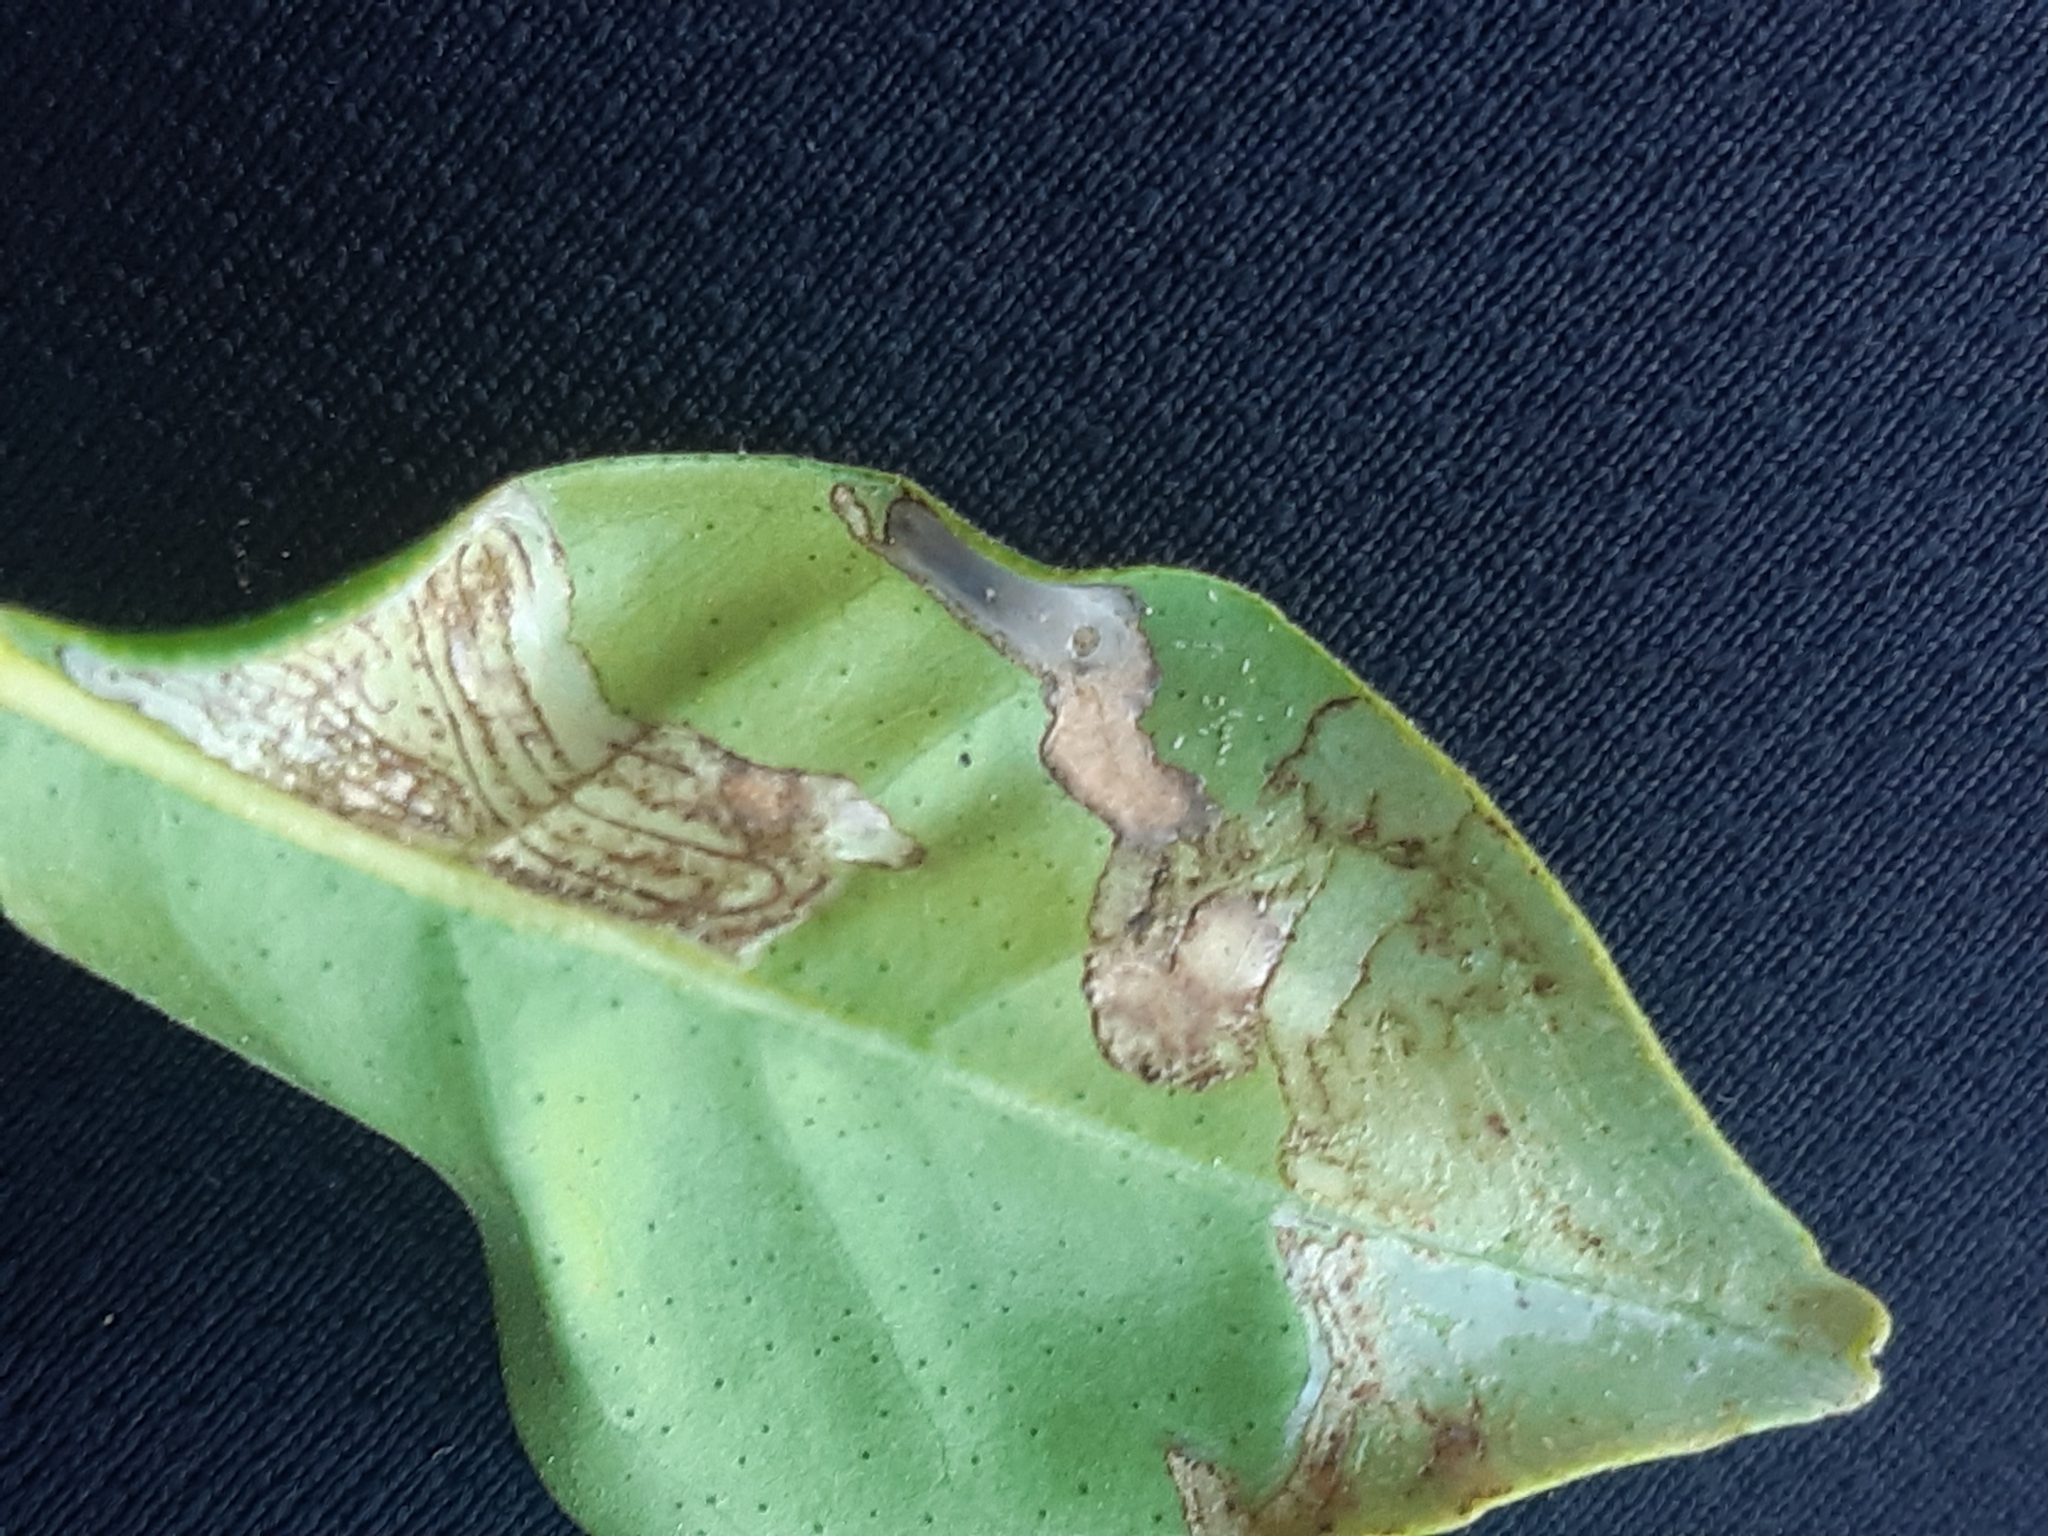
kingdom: Animalia
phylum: Arthropoda
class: Insecta
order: Lepidoptera
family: Gracillariidae
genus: Phyllocnistis
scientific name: Phyllocnistis citrella
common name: Citrus leafminer
